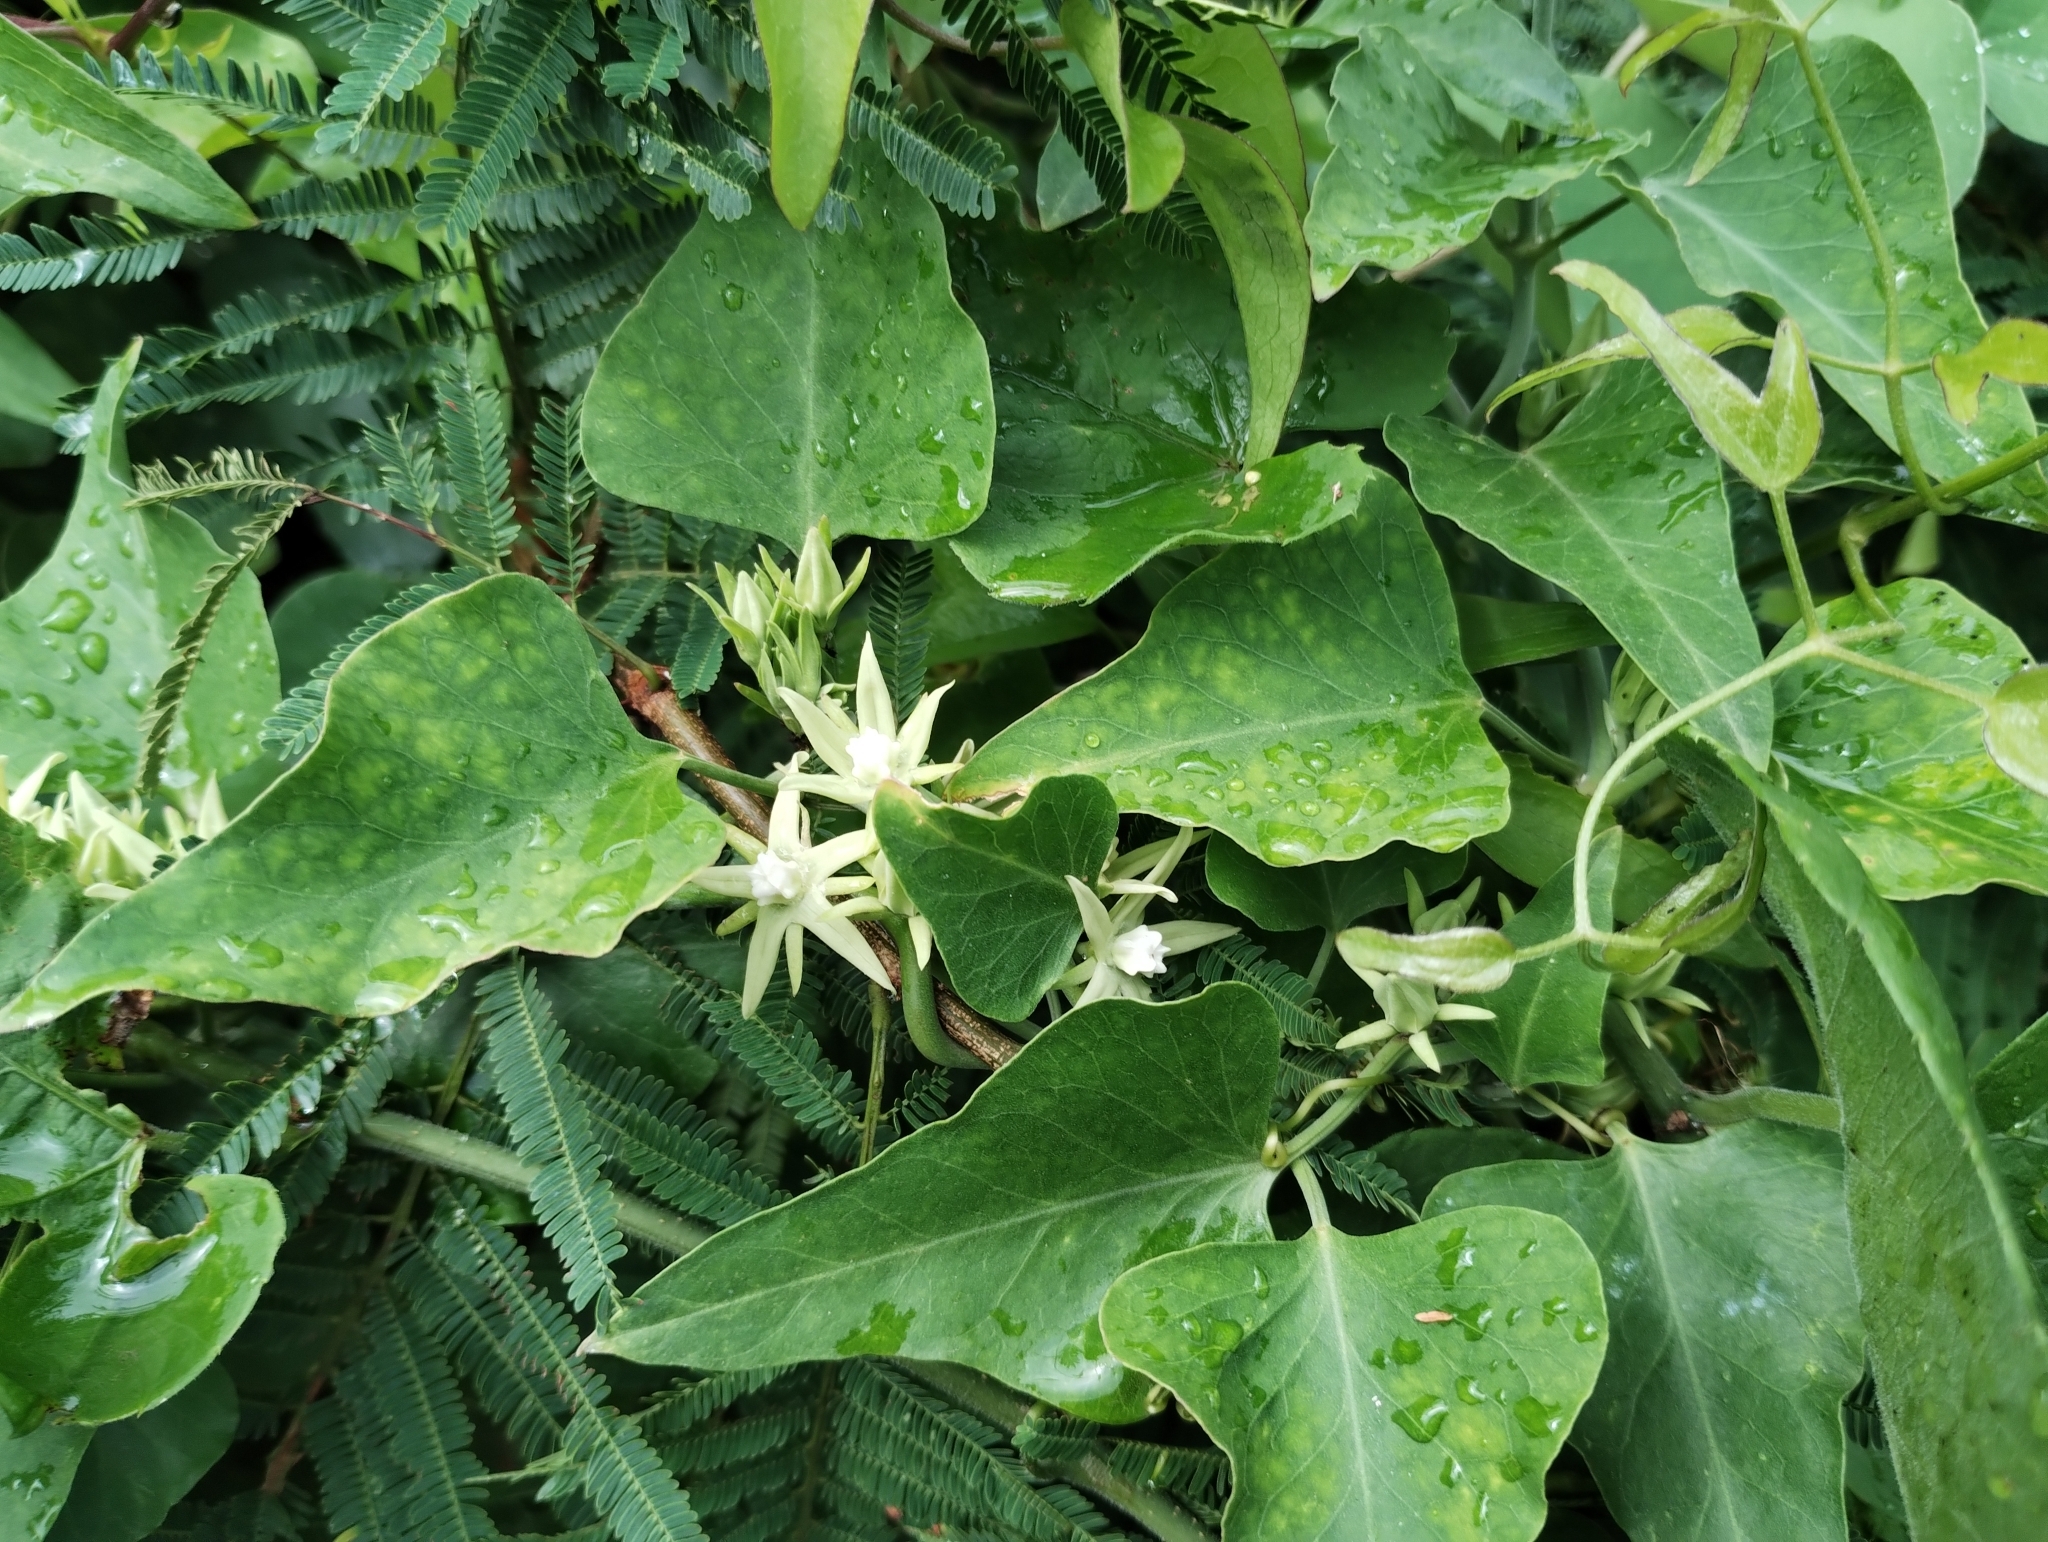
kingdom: Plantae
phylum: Tracheophyta
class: Magnoliopsida
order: Gentianales
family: Apocynaceae
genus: Araujia
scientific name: Araujia odorata
